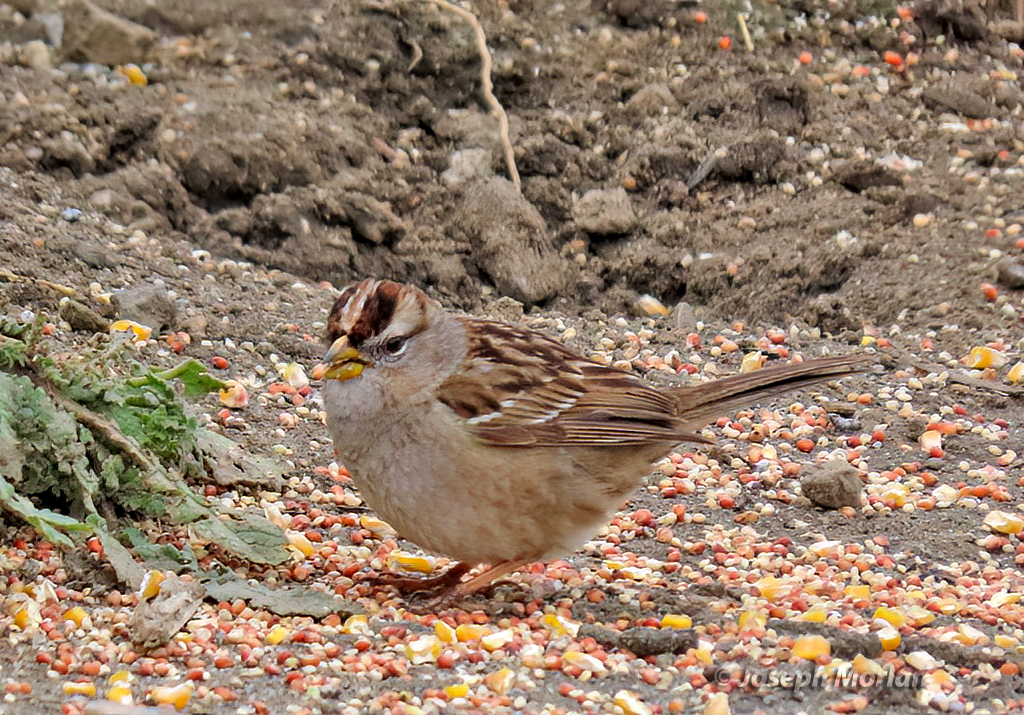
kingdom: Animalia
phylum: Chordata
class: Aves
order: Passeriformes
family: Passerellidae
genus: Zonotrichia
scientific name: Zonotrichia leucophrys
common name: White-crowned sparrow
